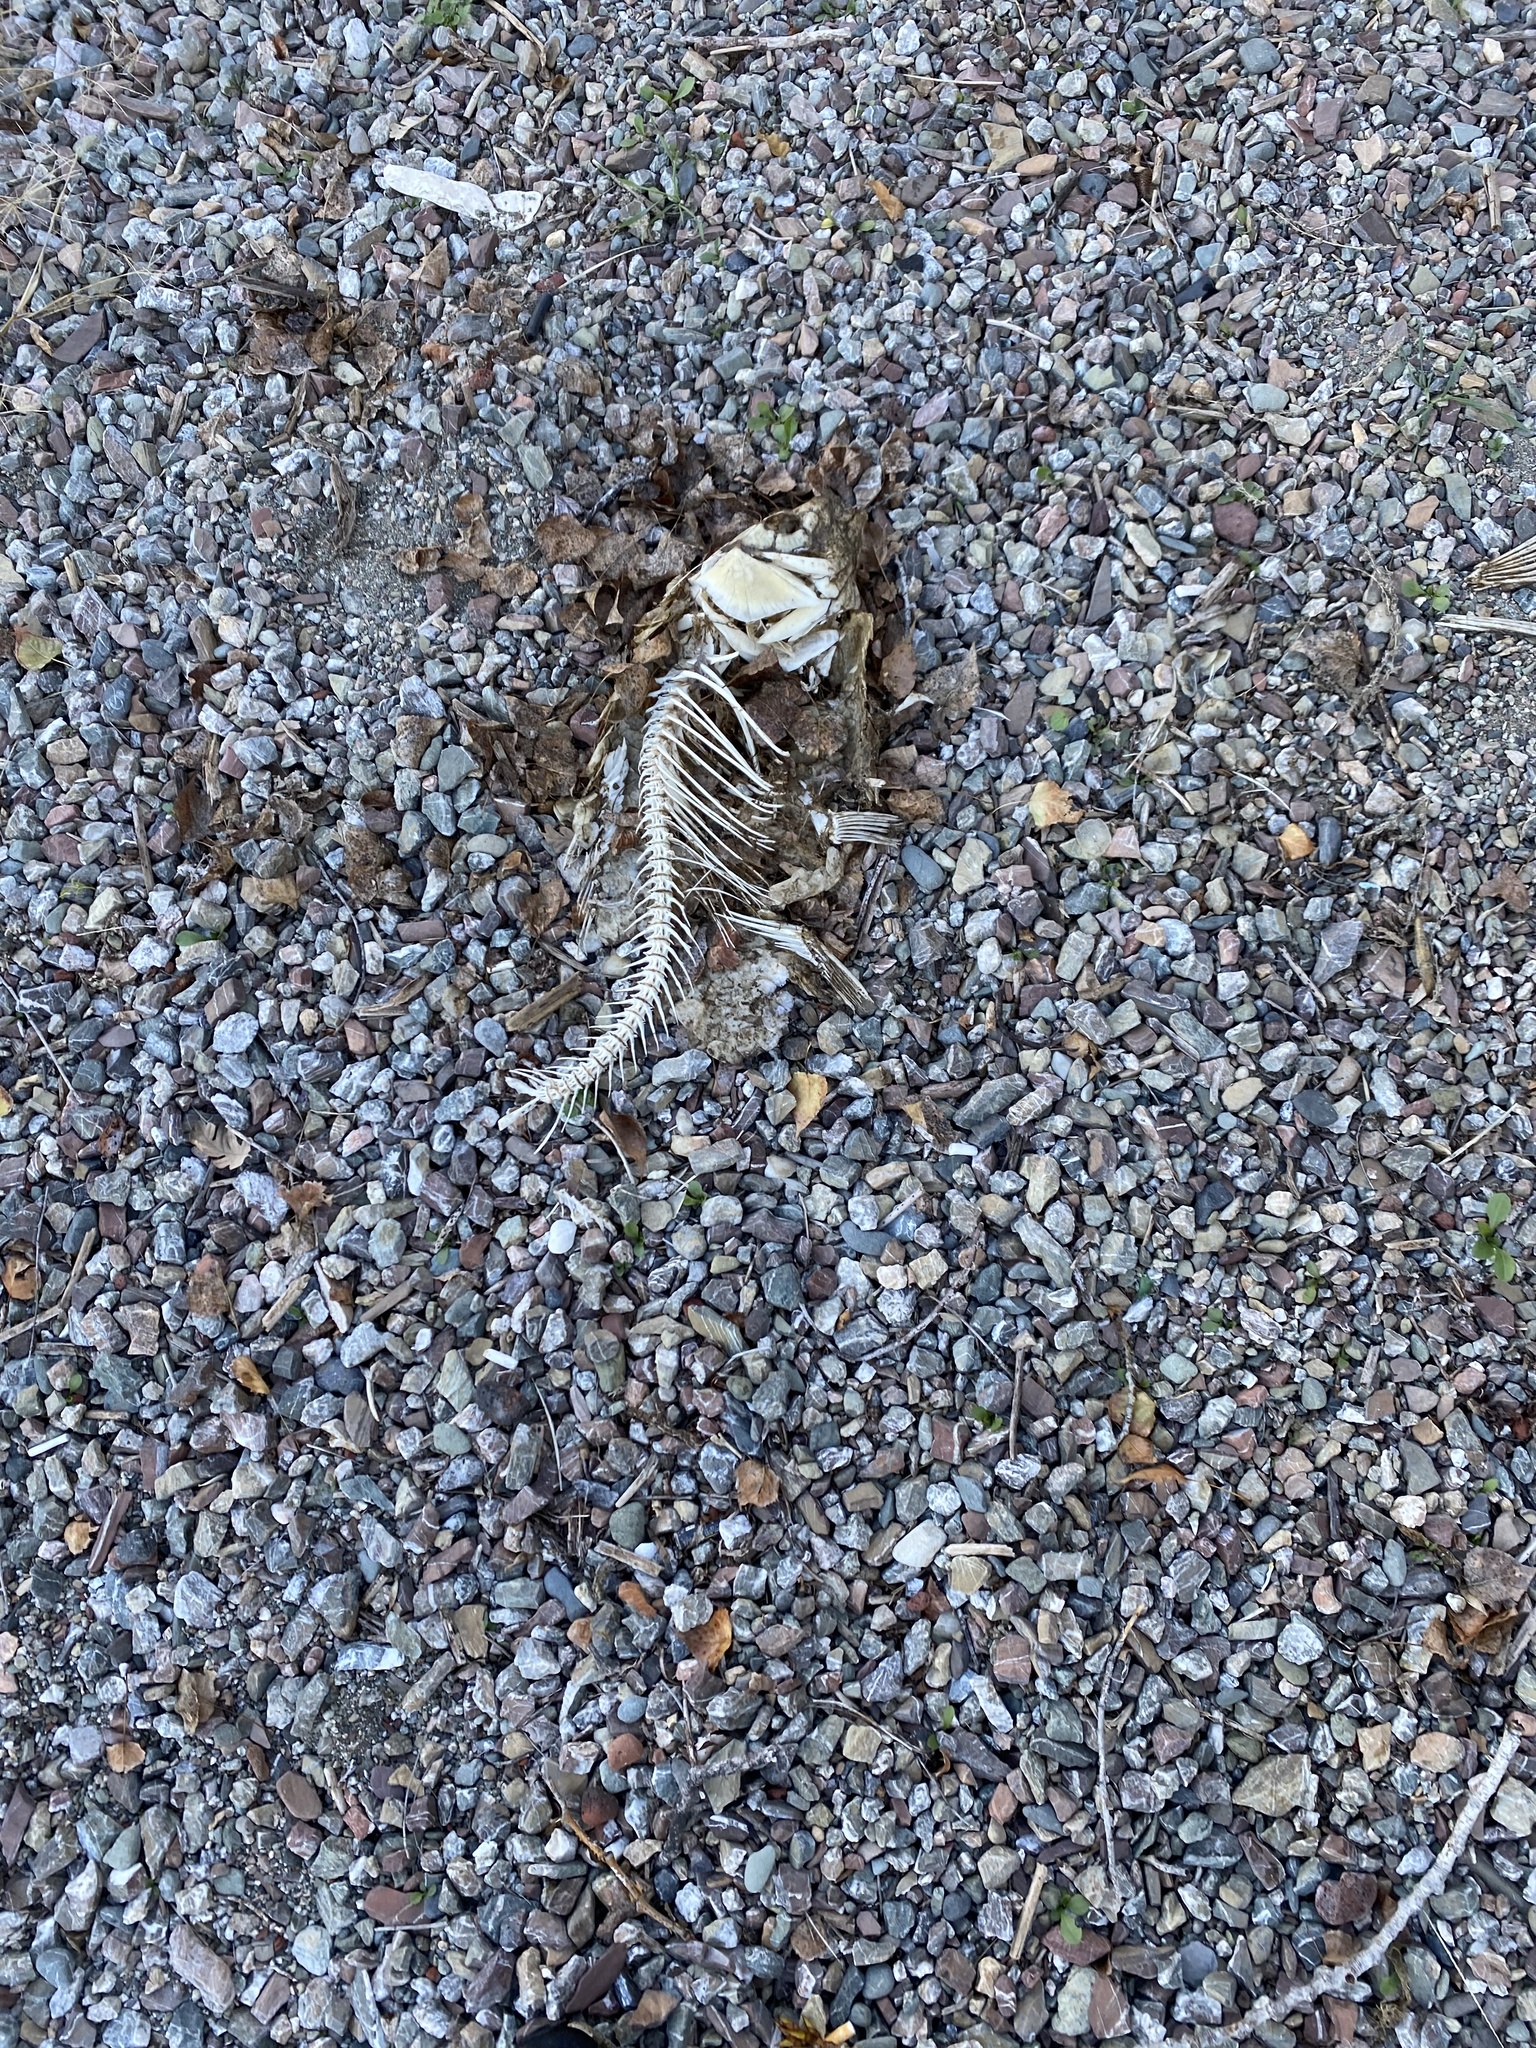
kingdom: Animalia
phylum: Chordata
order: Cypriniformes
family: Cyprinidae
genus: Cyprinus
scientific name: Cyprinus carpio
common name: Common carp
